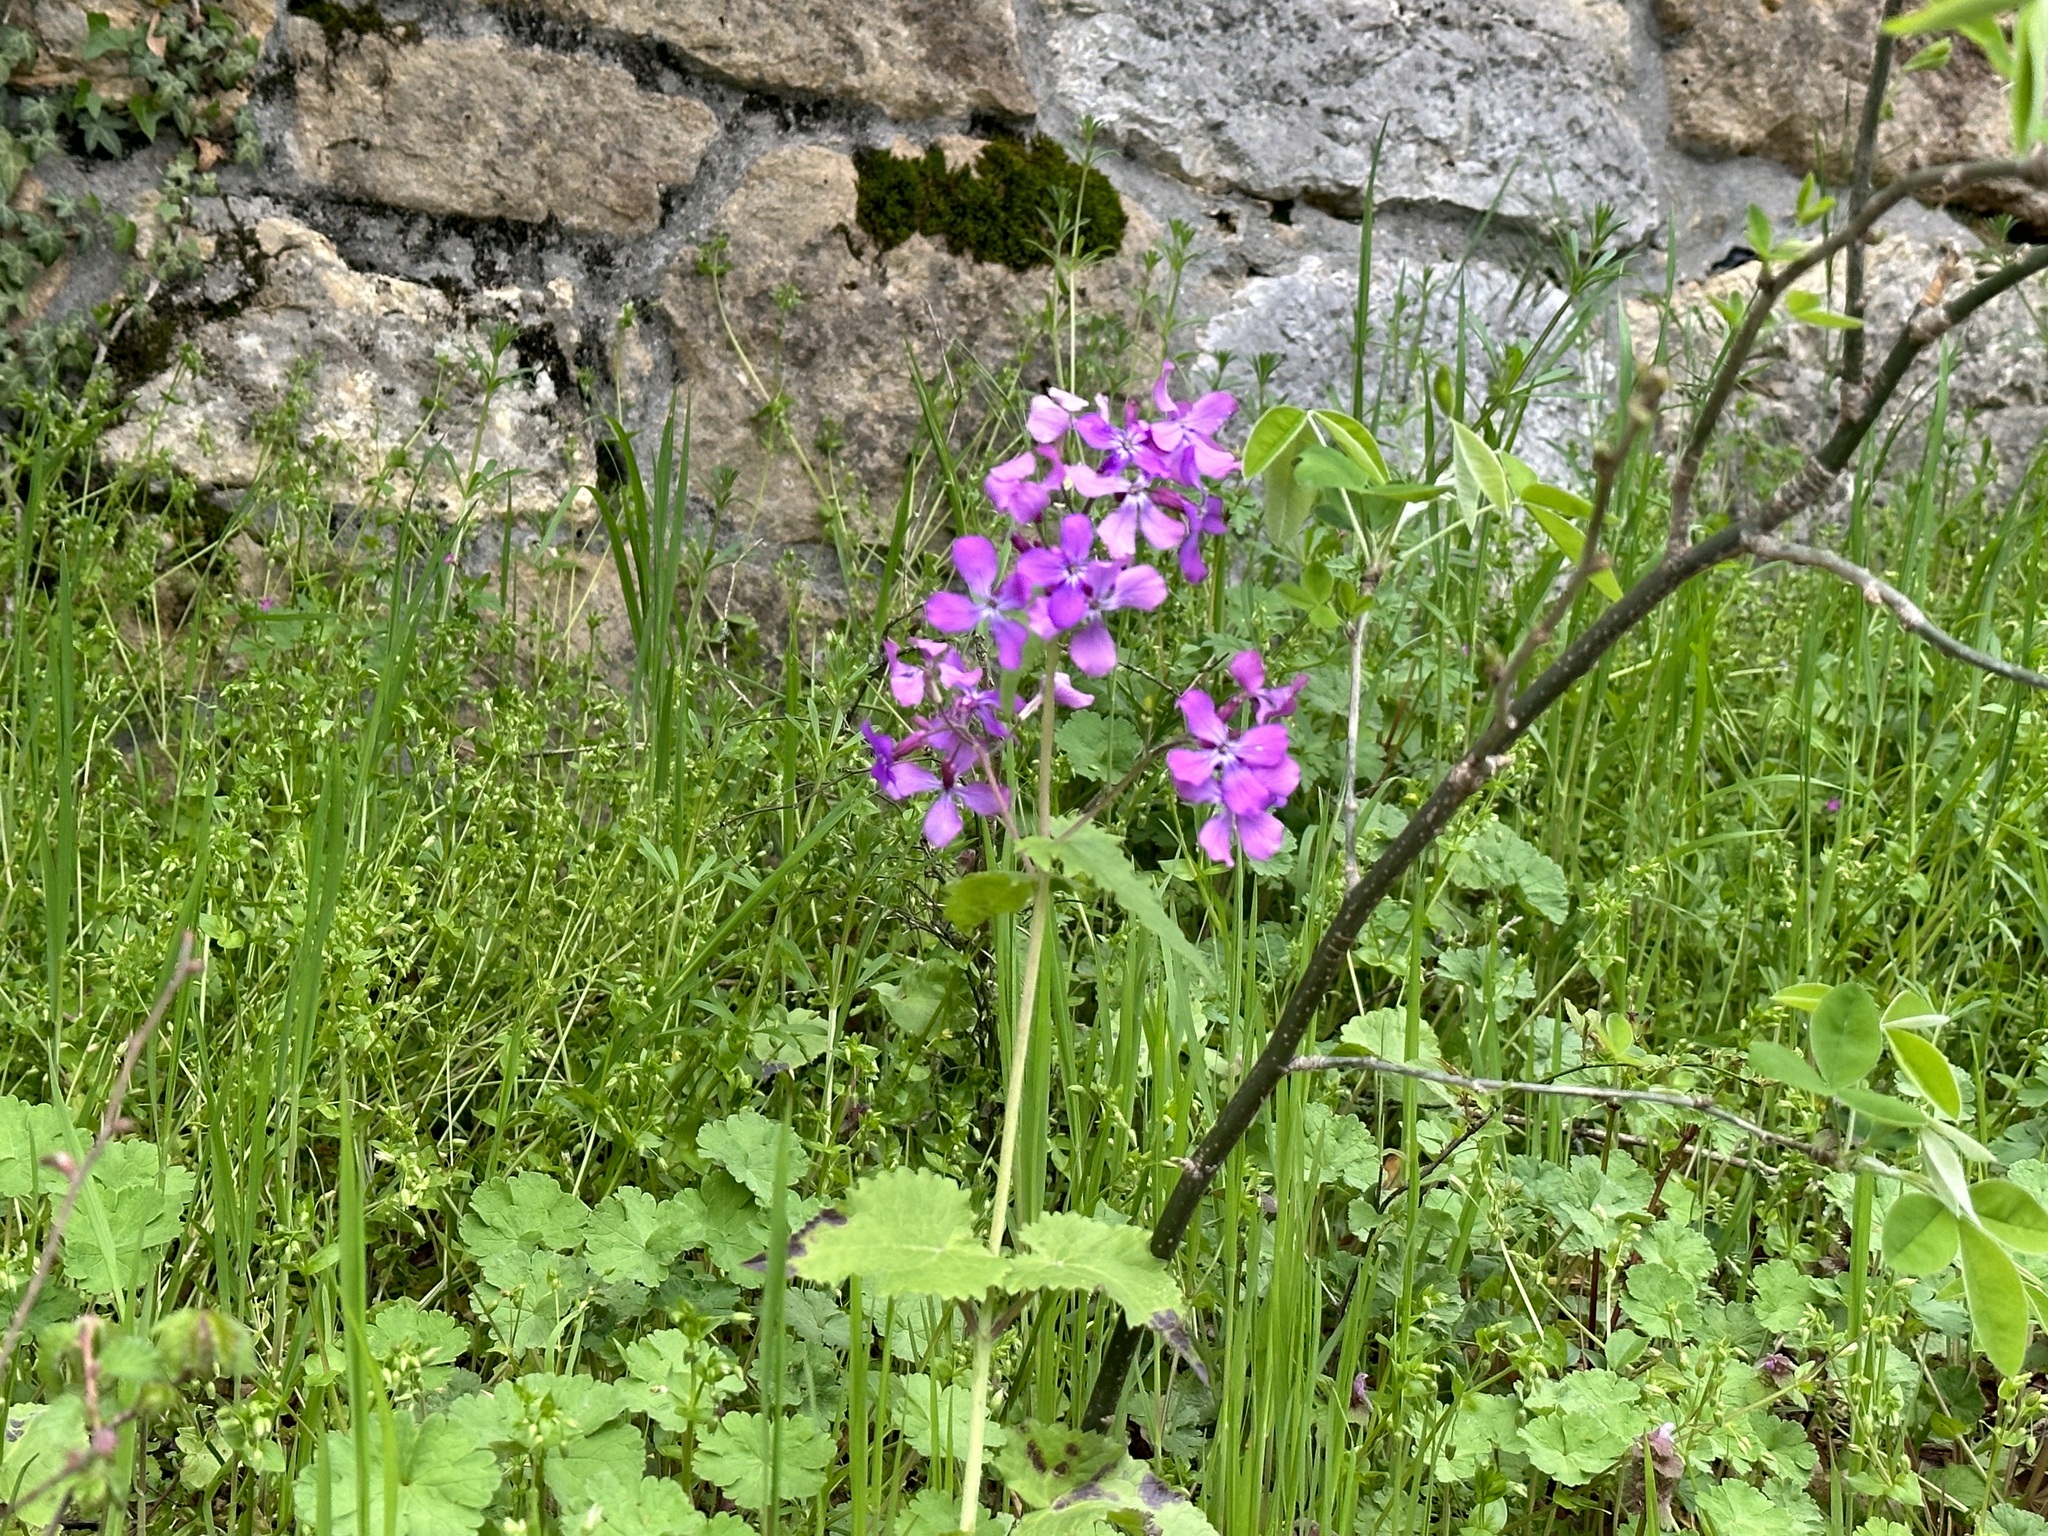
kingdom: Plantae
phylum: Tracheophyta
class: Magnoliopsida
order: Brassicales
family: Brassicaceae
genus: Lunaria
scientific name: Lunaria annua
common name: Honesty
